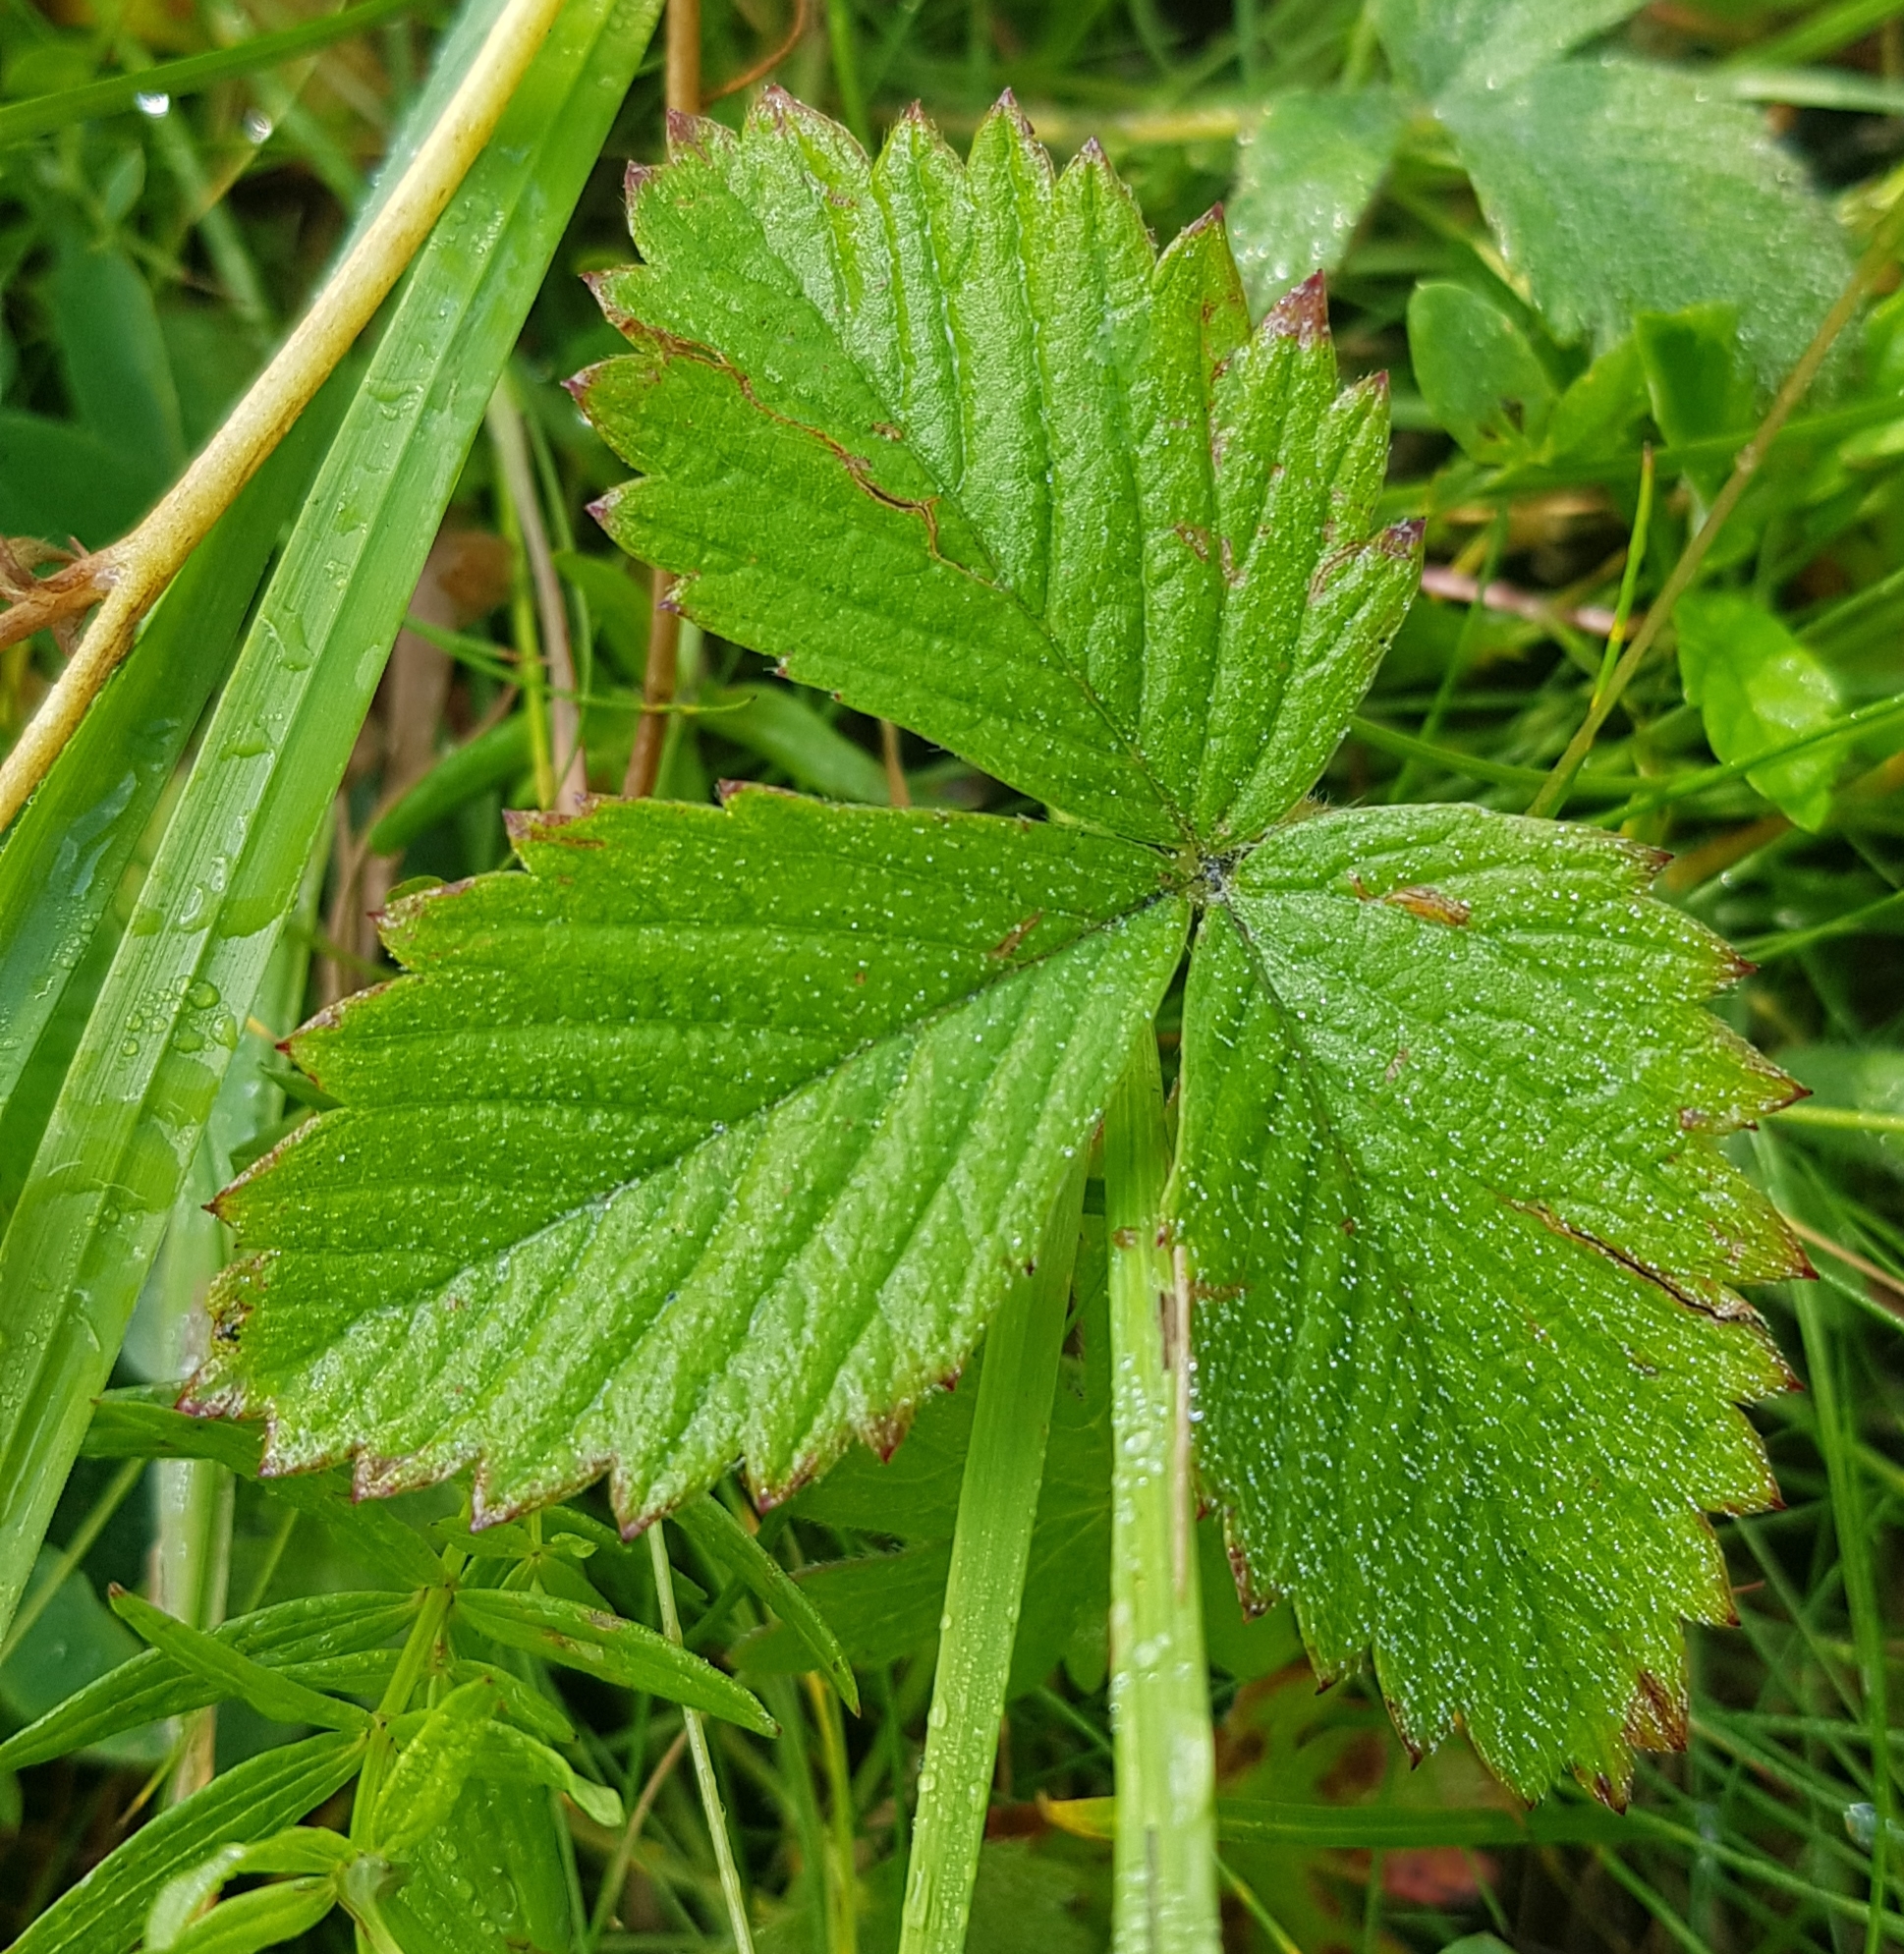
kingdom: Plantae
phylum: Tracheophyta
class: Magnoliopsida
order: Rosales
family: Rosaceae
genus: Fragaria
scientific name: Fragaria orientalis
